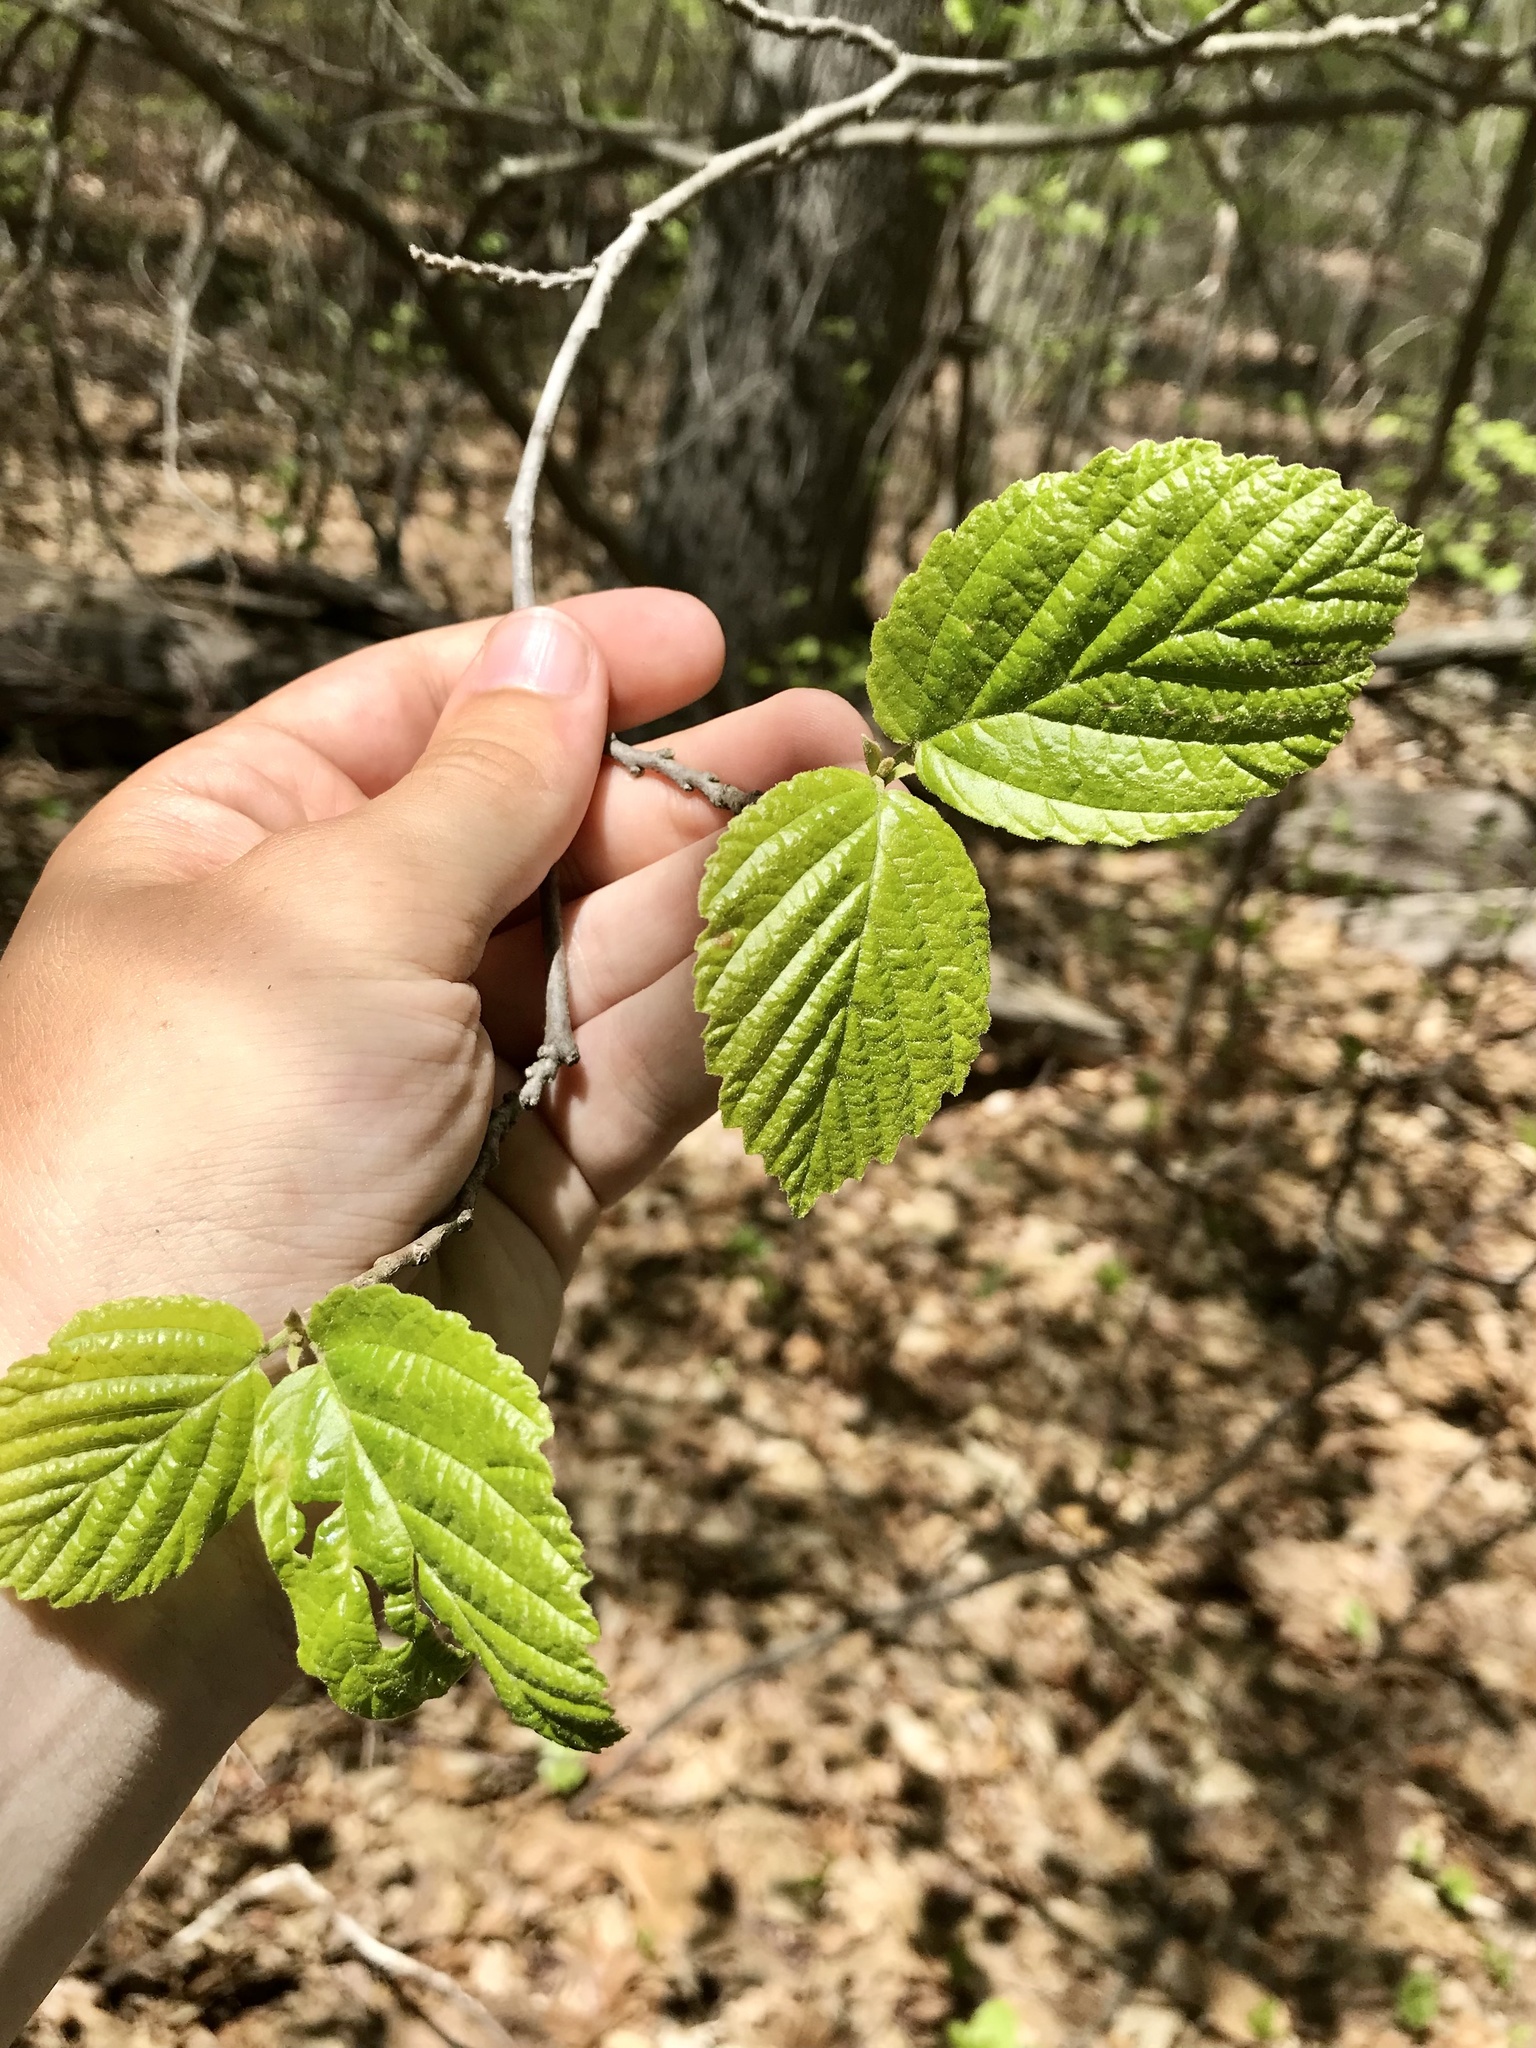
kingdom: Plantae
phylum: Tracheophyta
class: Magnoliopsida
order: Saxifragales
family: Hamamelidaceae
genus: Hamamelis
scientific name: Hamamelis virginiana
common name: Witch-hazel
